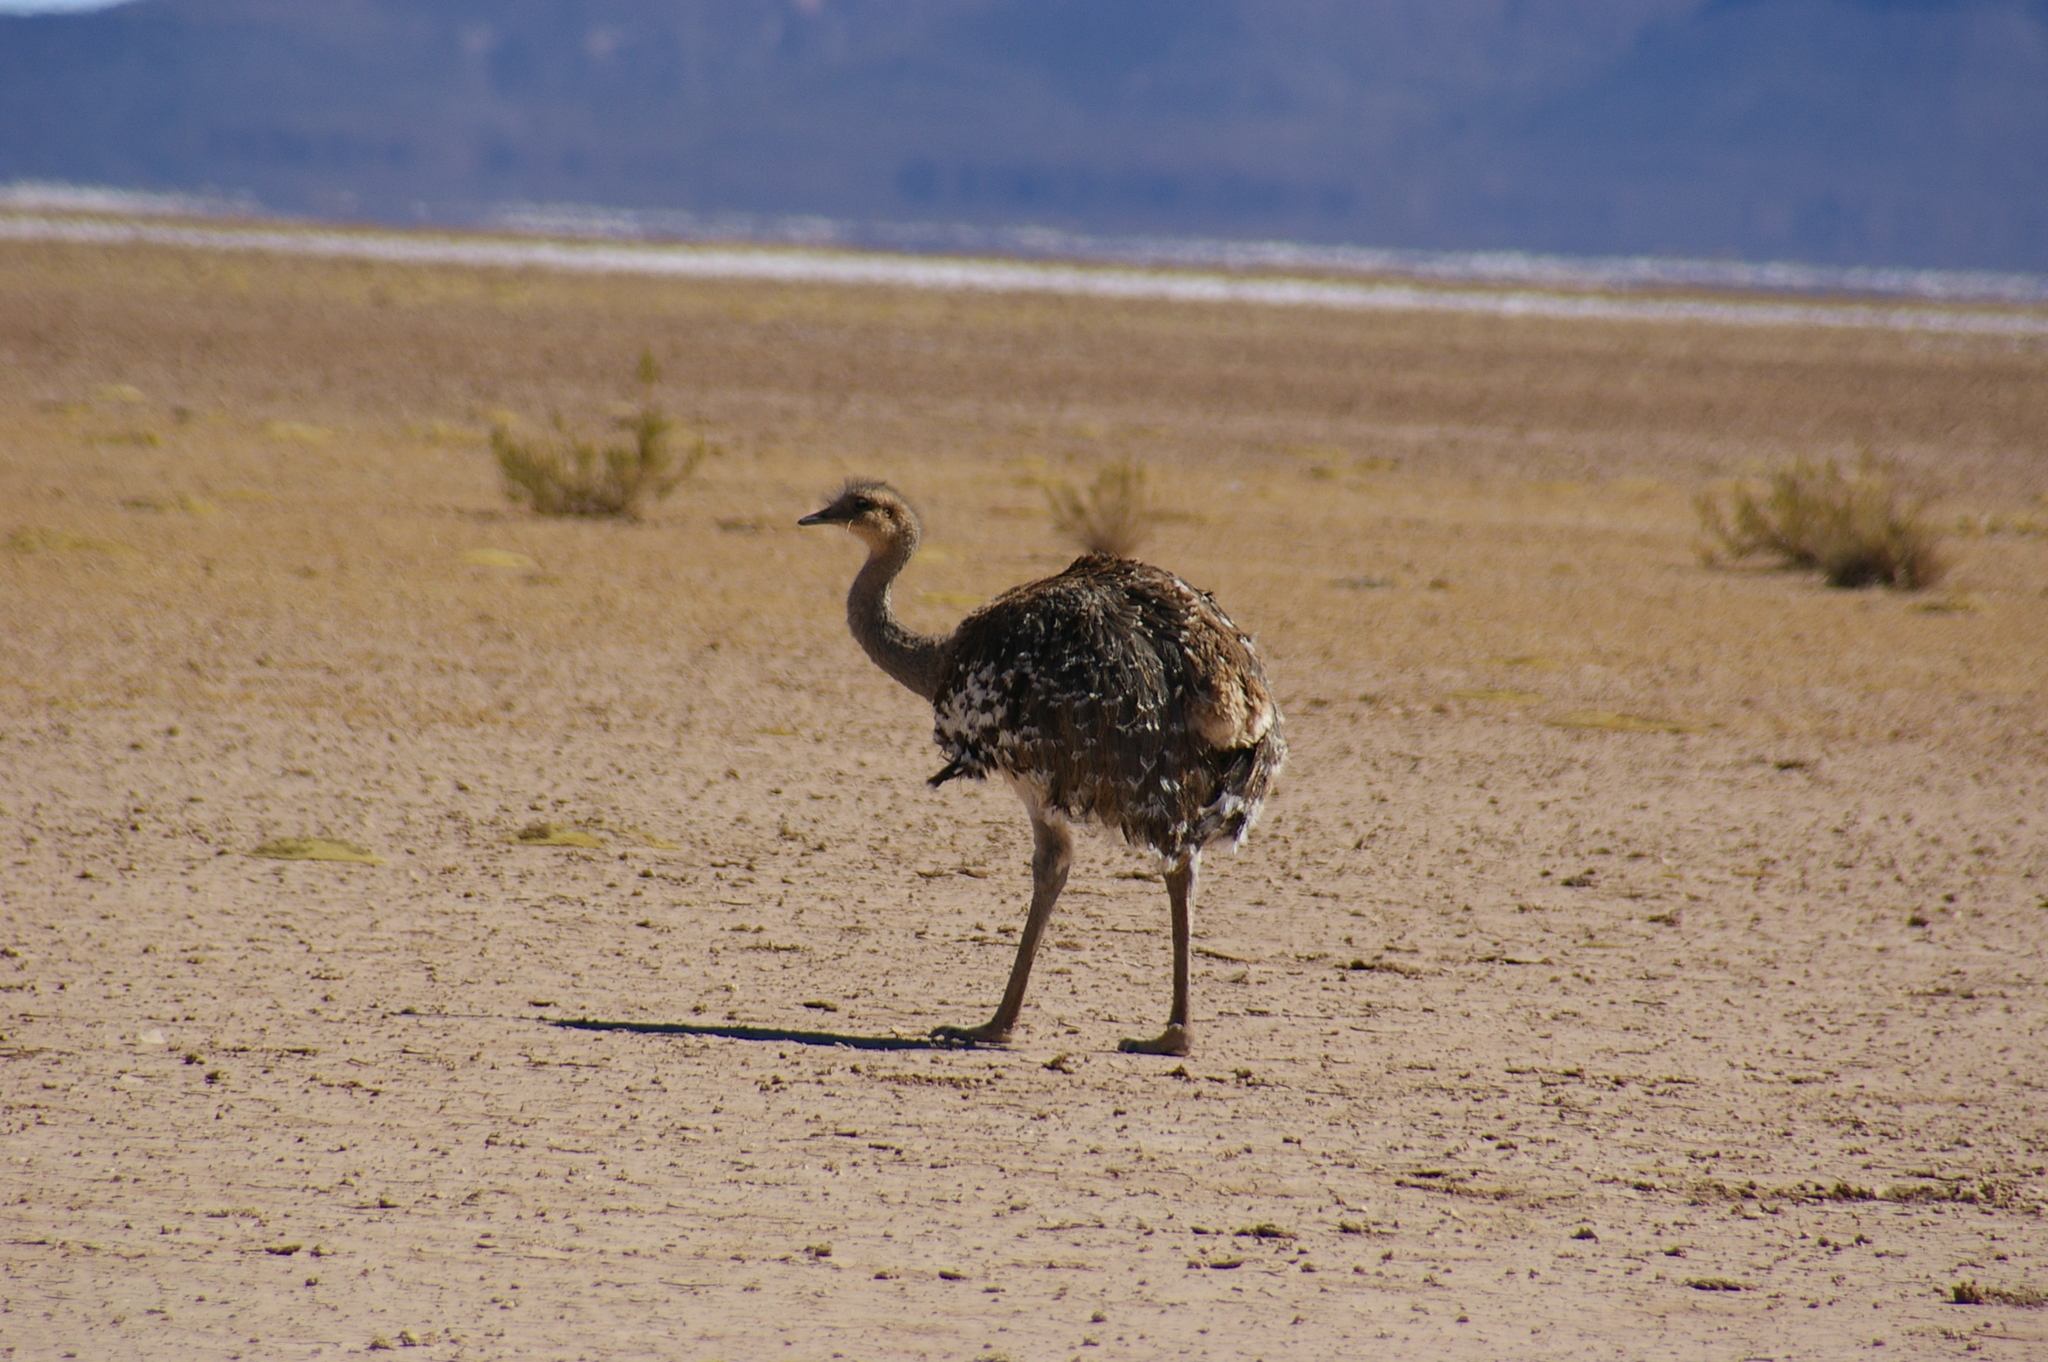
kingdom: Animalia
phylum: Chordata
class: Aves
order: Rheiformes
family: Rheidae
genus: Rhea
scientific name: Rhea pennata
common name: Lesser rhea
